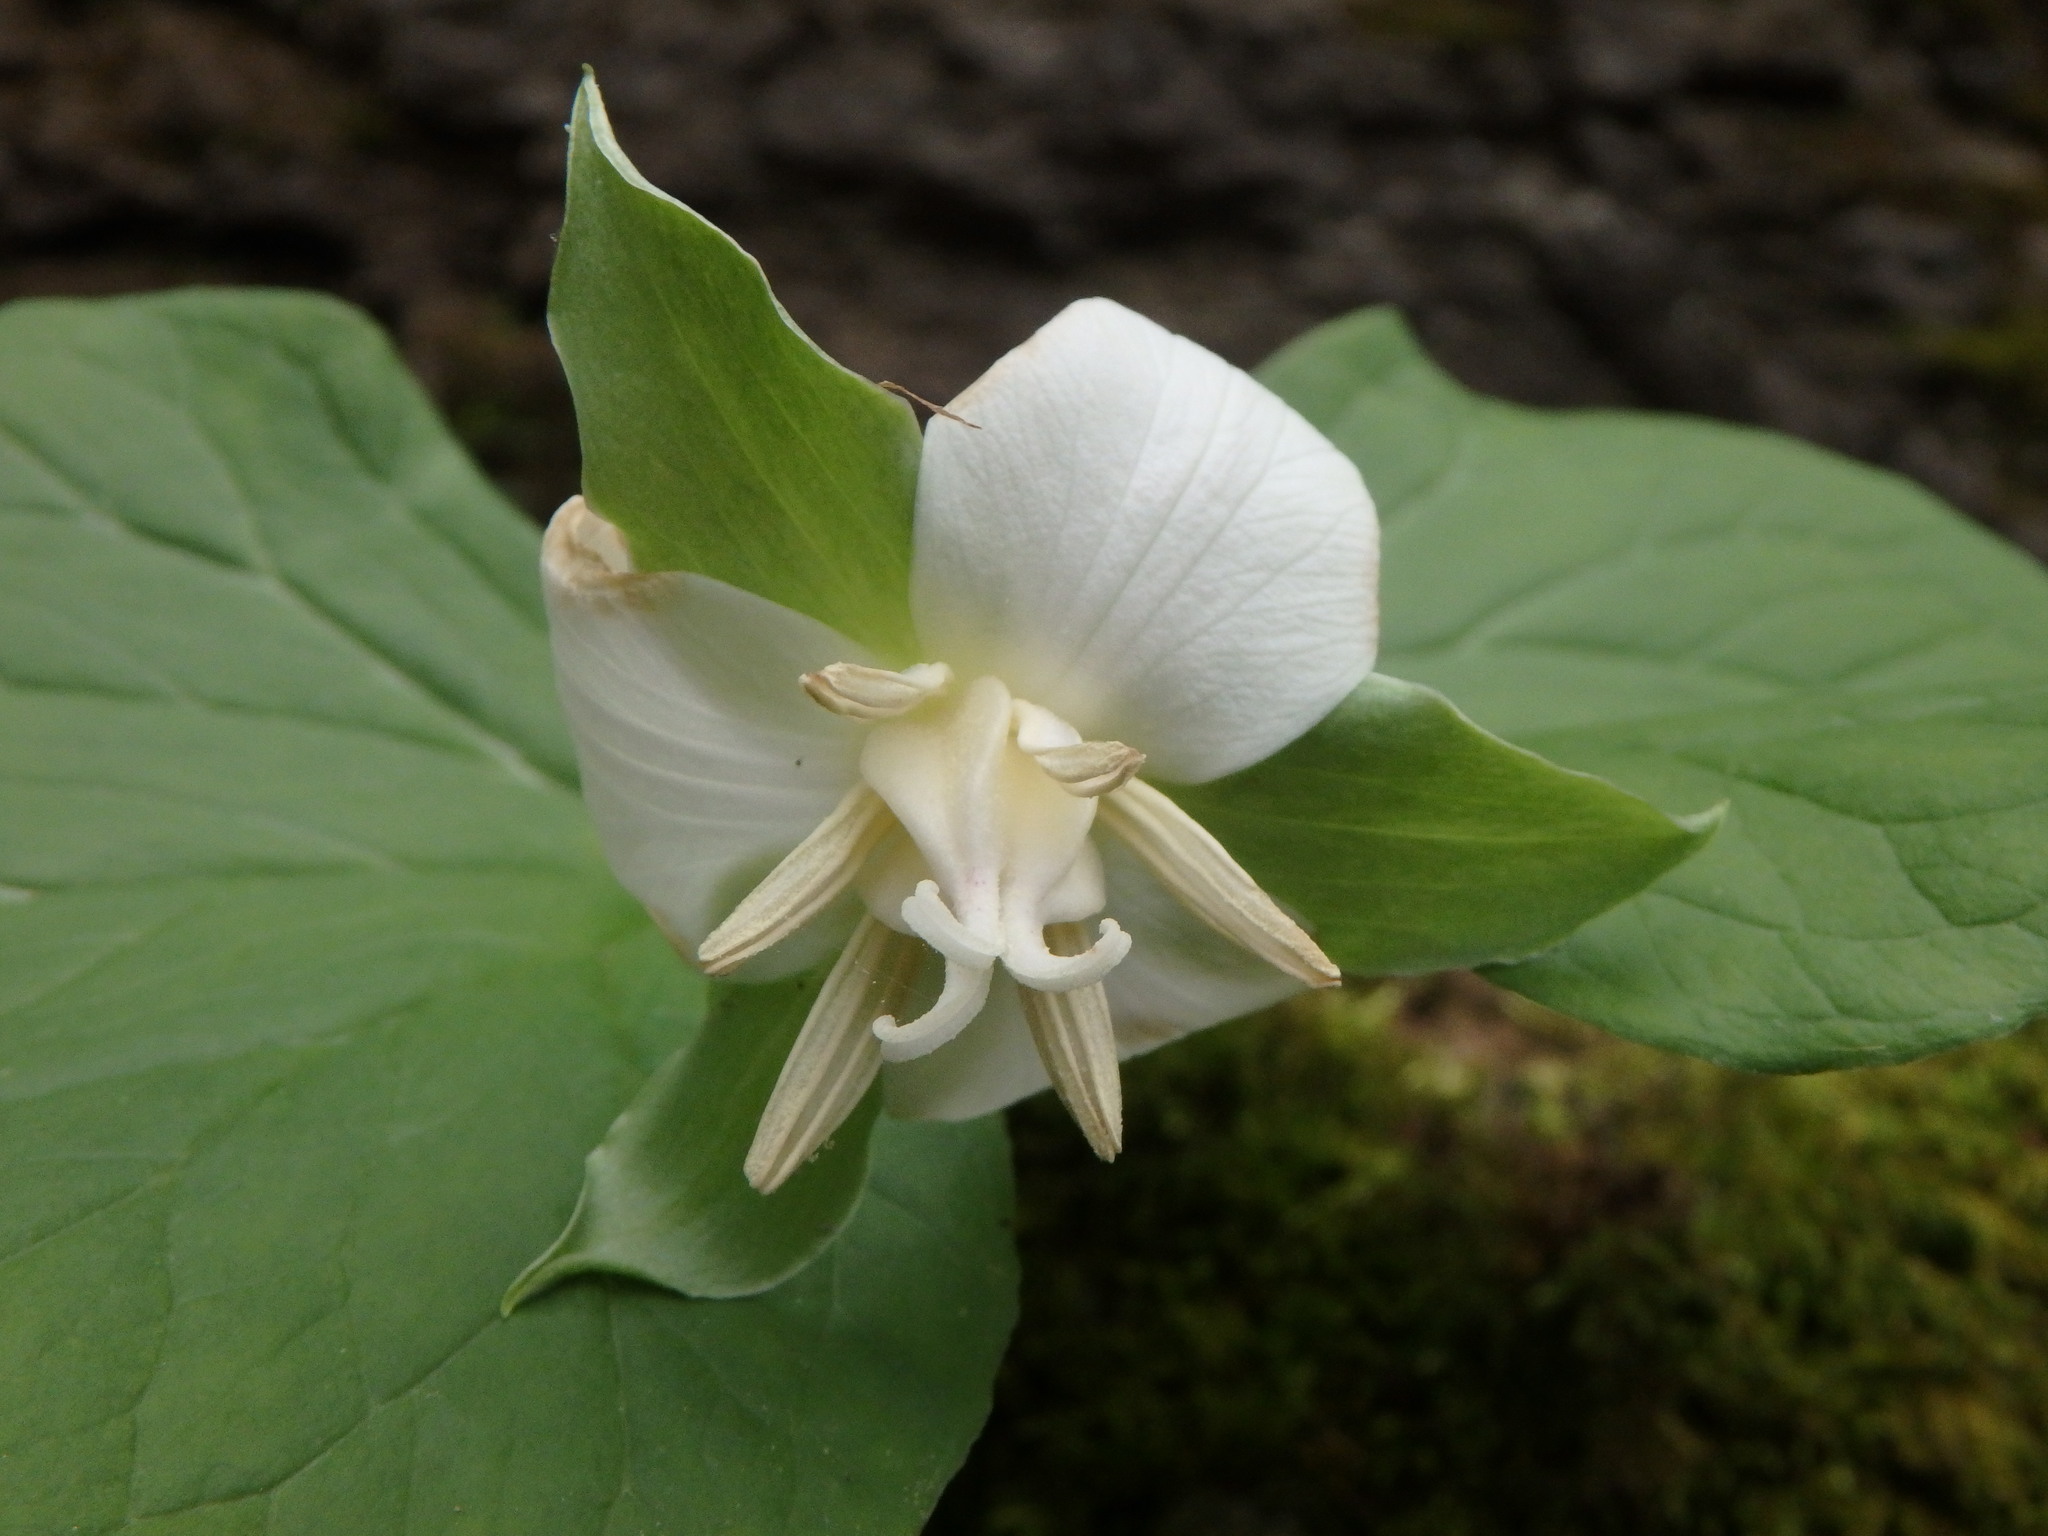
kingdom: Plantae
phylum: Tracheophyta
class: Liliopsida
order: Liliales
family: Melanthiaceae
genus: Trillium
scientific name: Trillium flexipes
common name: Drooping trillium
